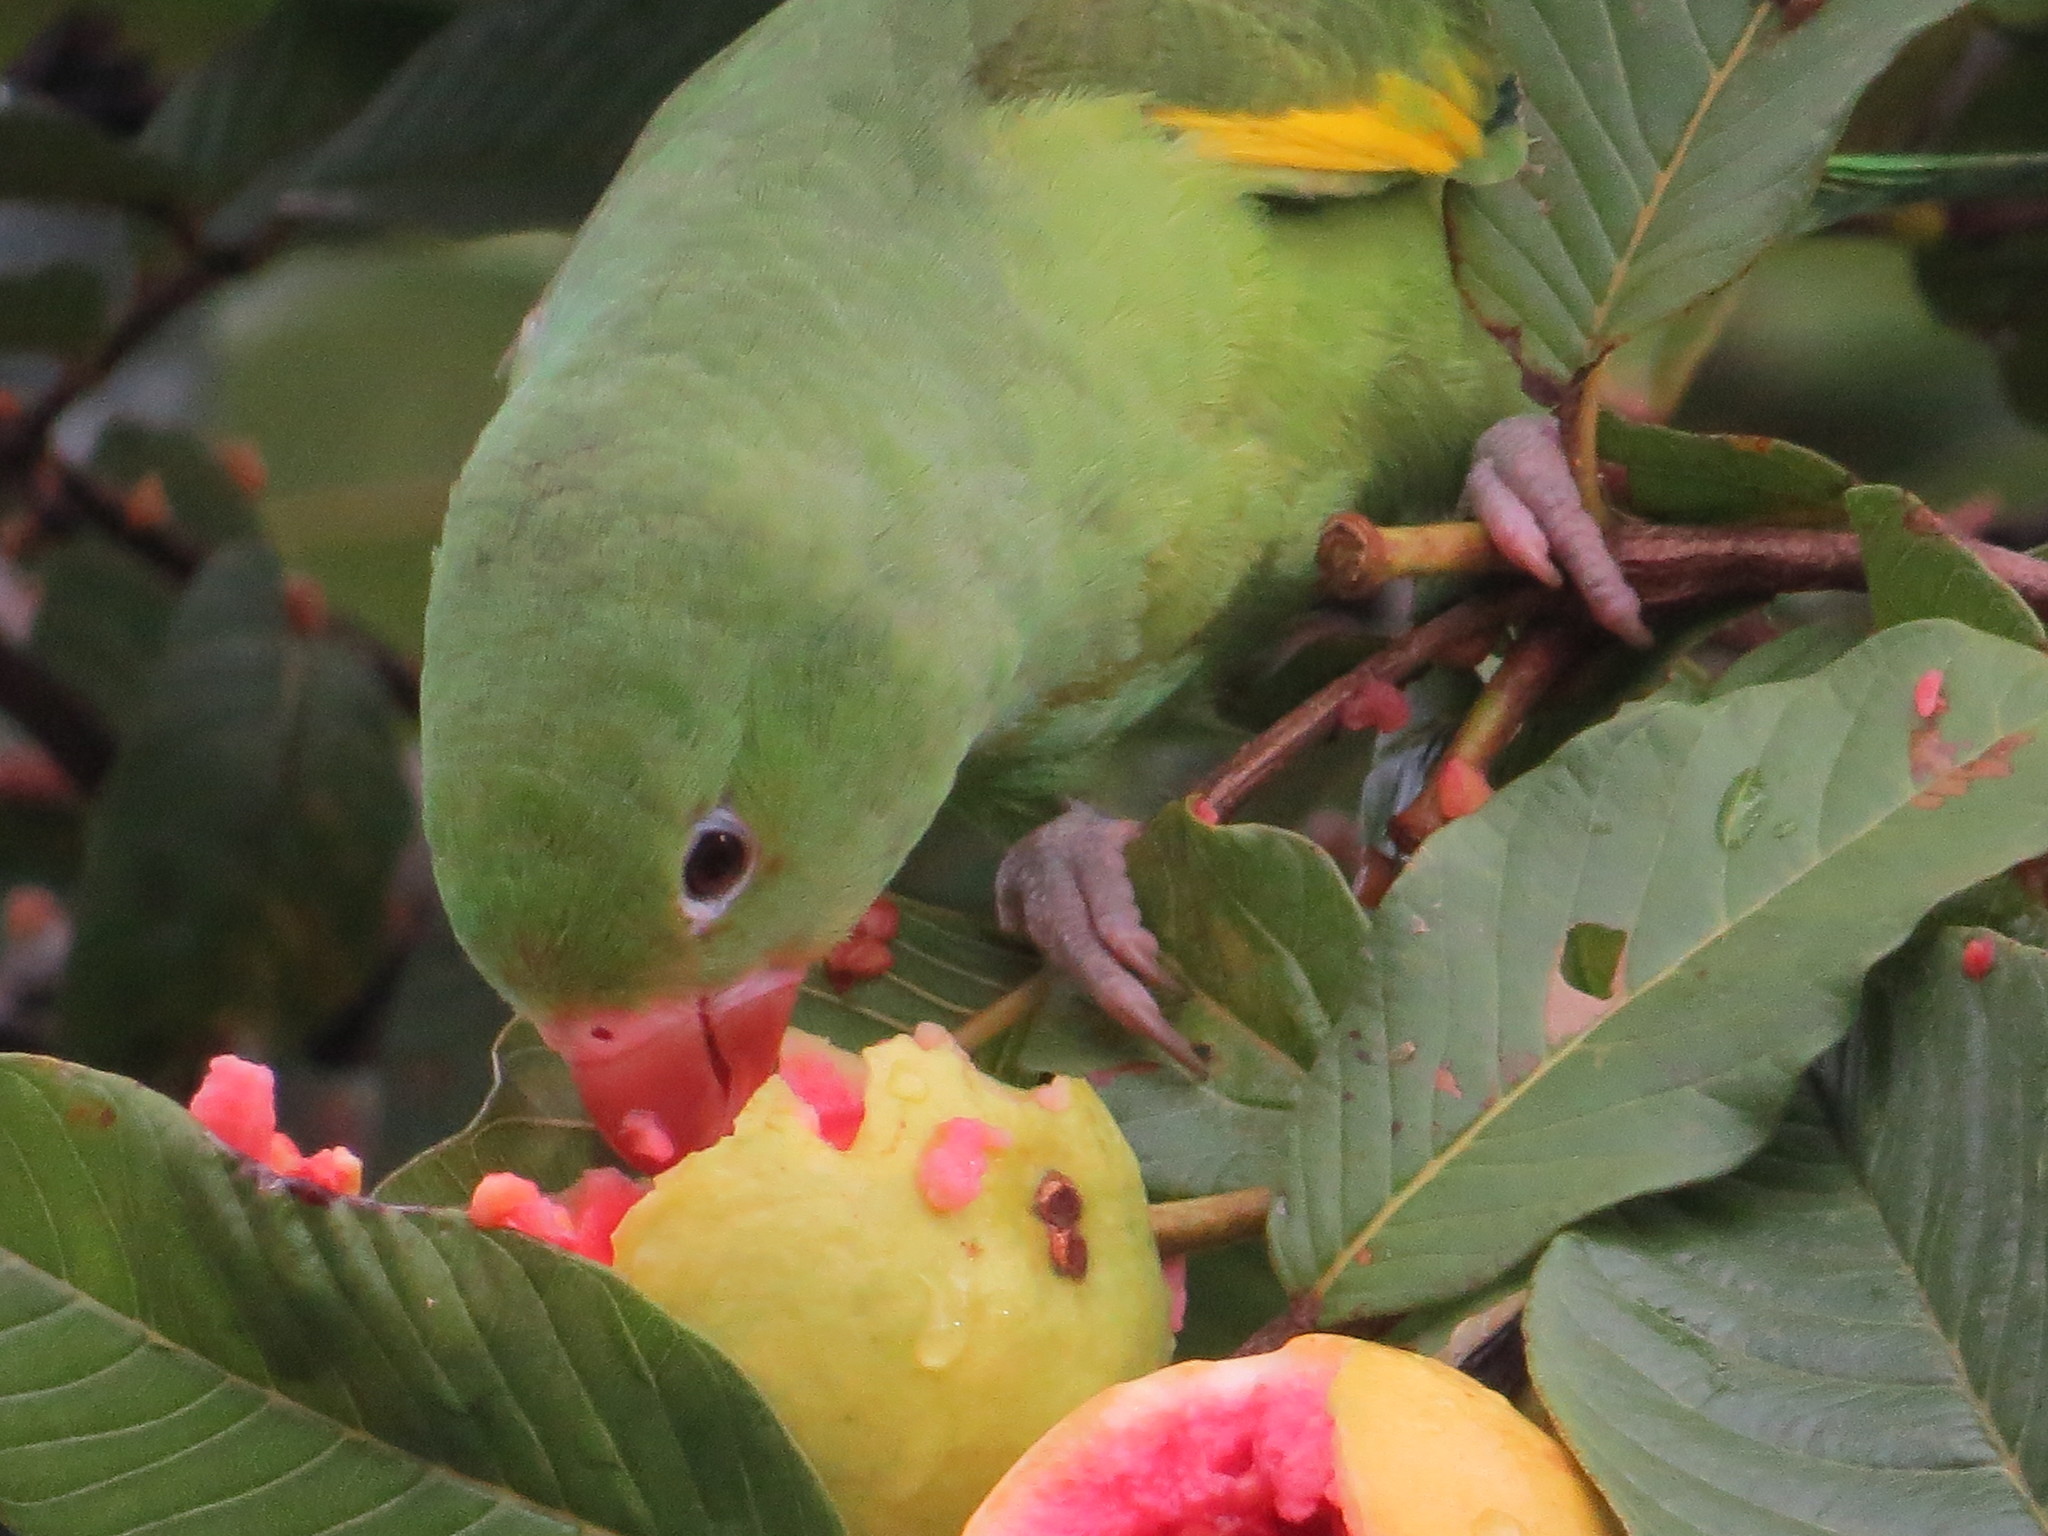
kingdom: Animalia
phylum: Chordata
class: Aves
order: Psittaciformes
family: Psittacidae
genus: Brotogeris
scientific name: Brotogeris chiriri
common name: Yellow-chevroned parakeet
